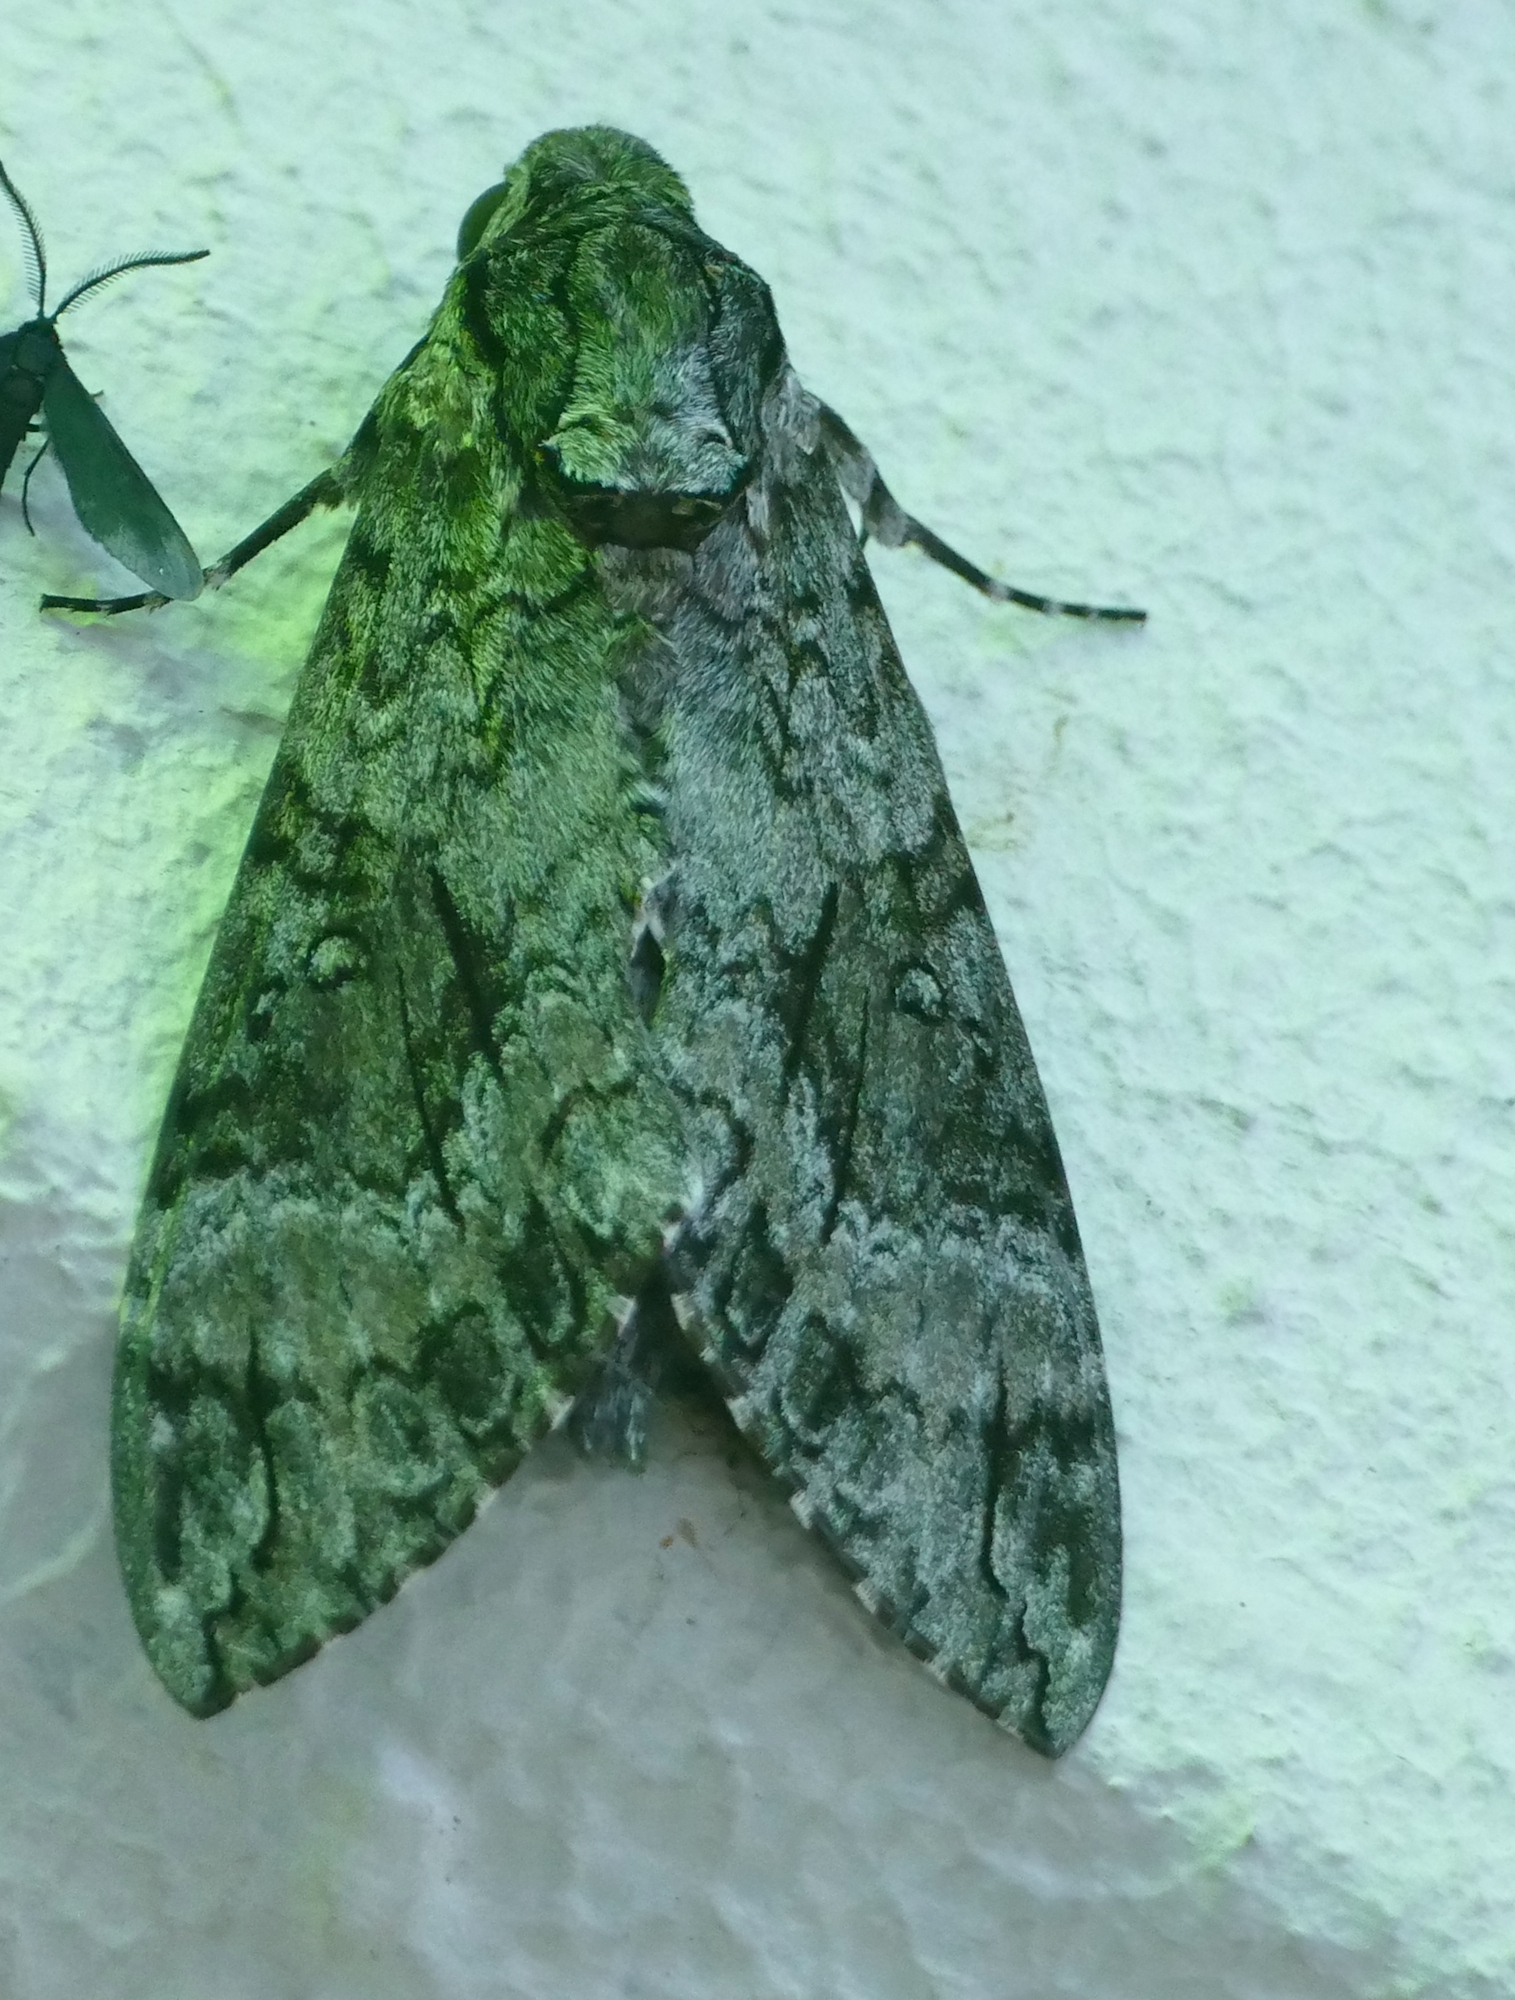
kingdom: Animalia
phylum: Arthropoda
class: Insecta
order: Lepidoptera
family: Sphingidae
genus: Agrius
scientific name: Agrius cingulata
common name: Pink-spotted hawkmoth
